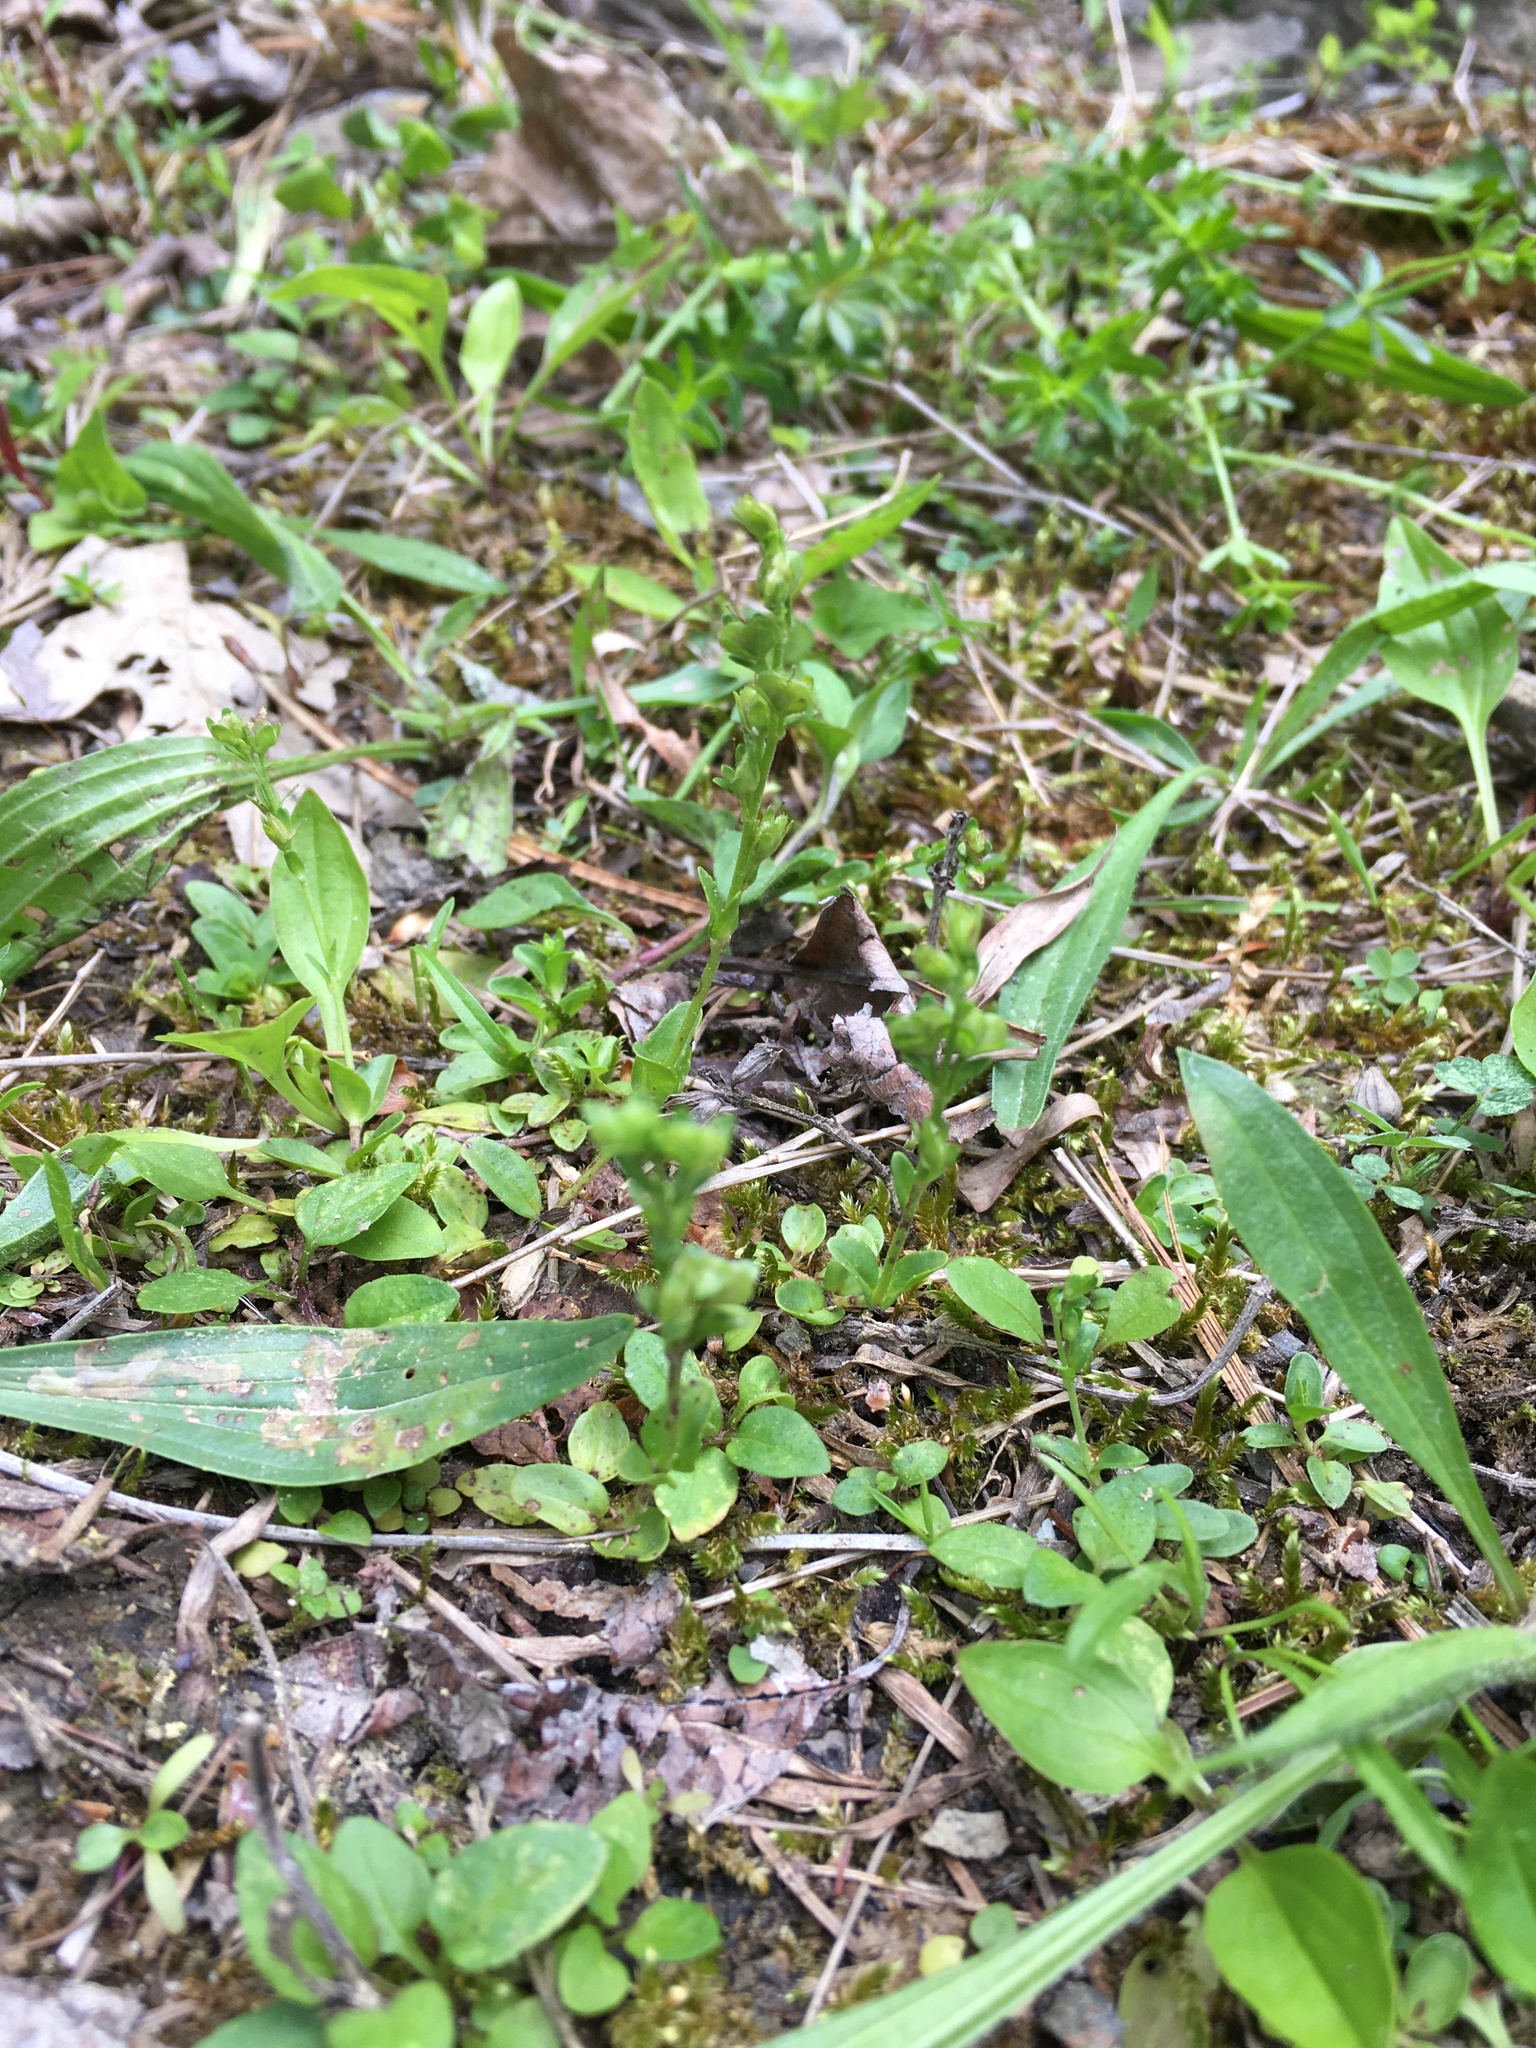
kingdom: Plantae
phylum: Tracheophyta
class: Magnoliopsida
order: Lamiales
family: Plantaginaceae
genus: Veronica
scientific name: Veronica serpyllifolia
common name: Thyme-leaved speedwell
